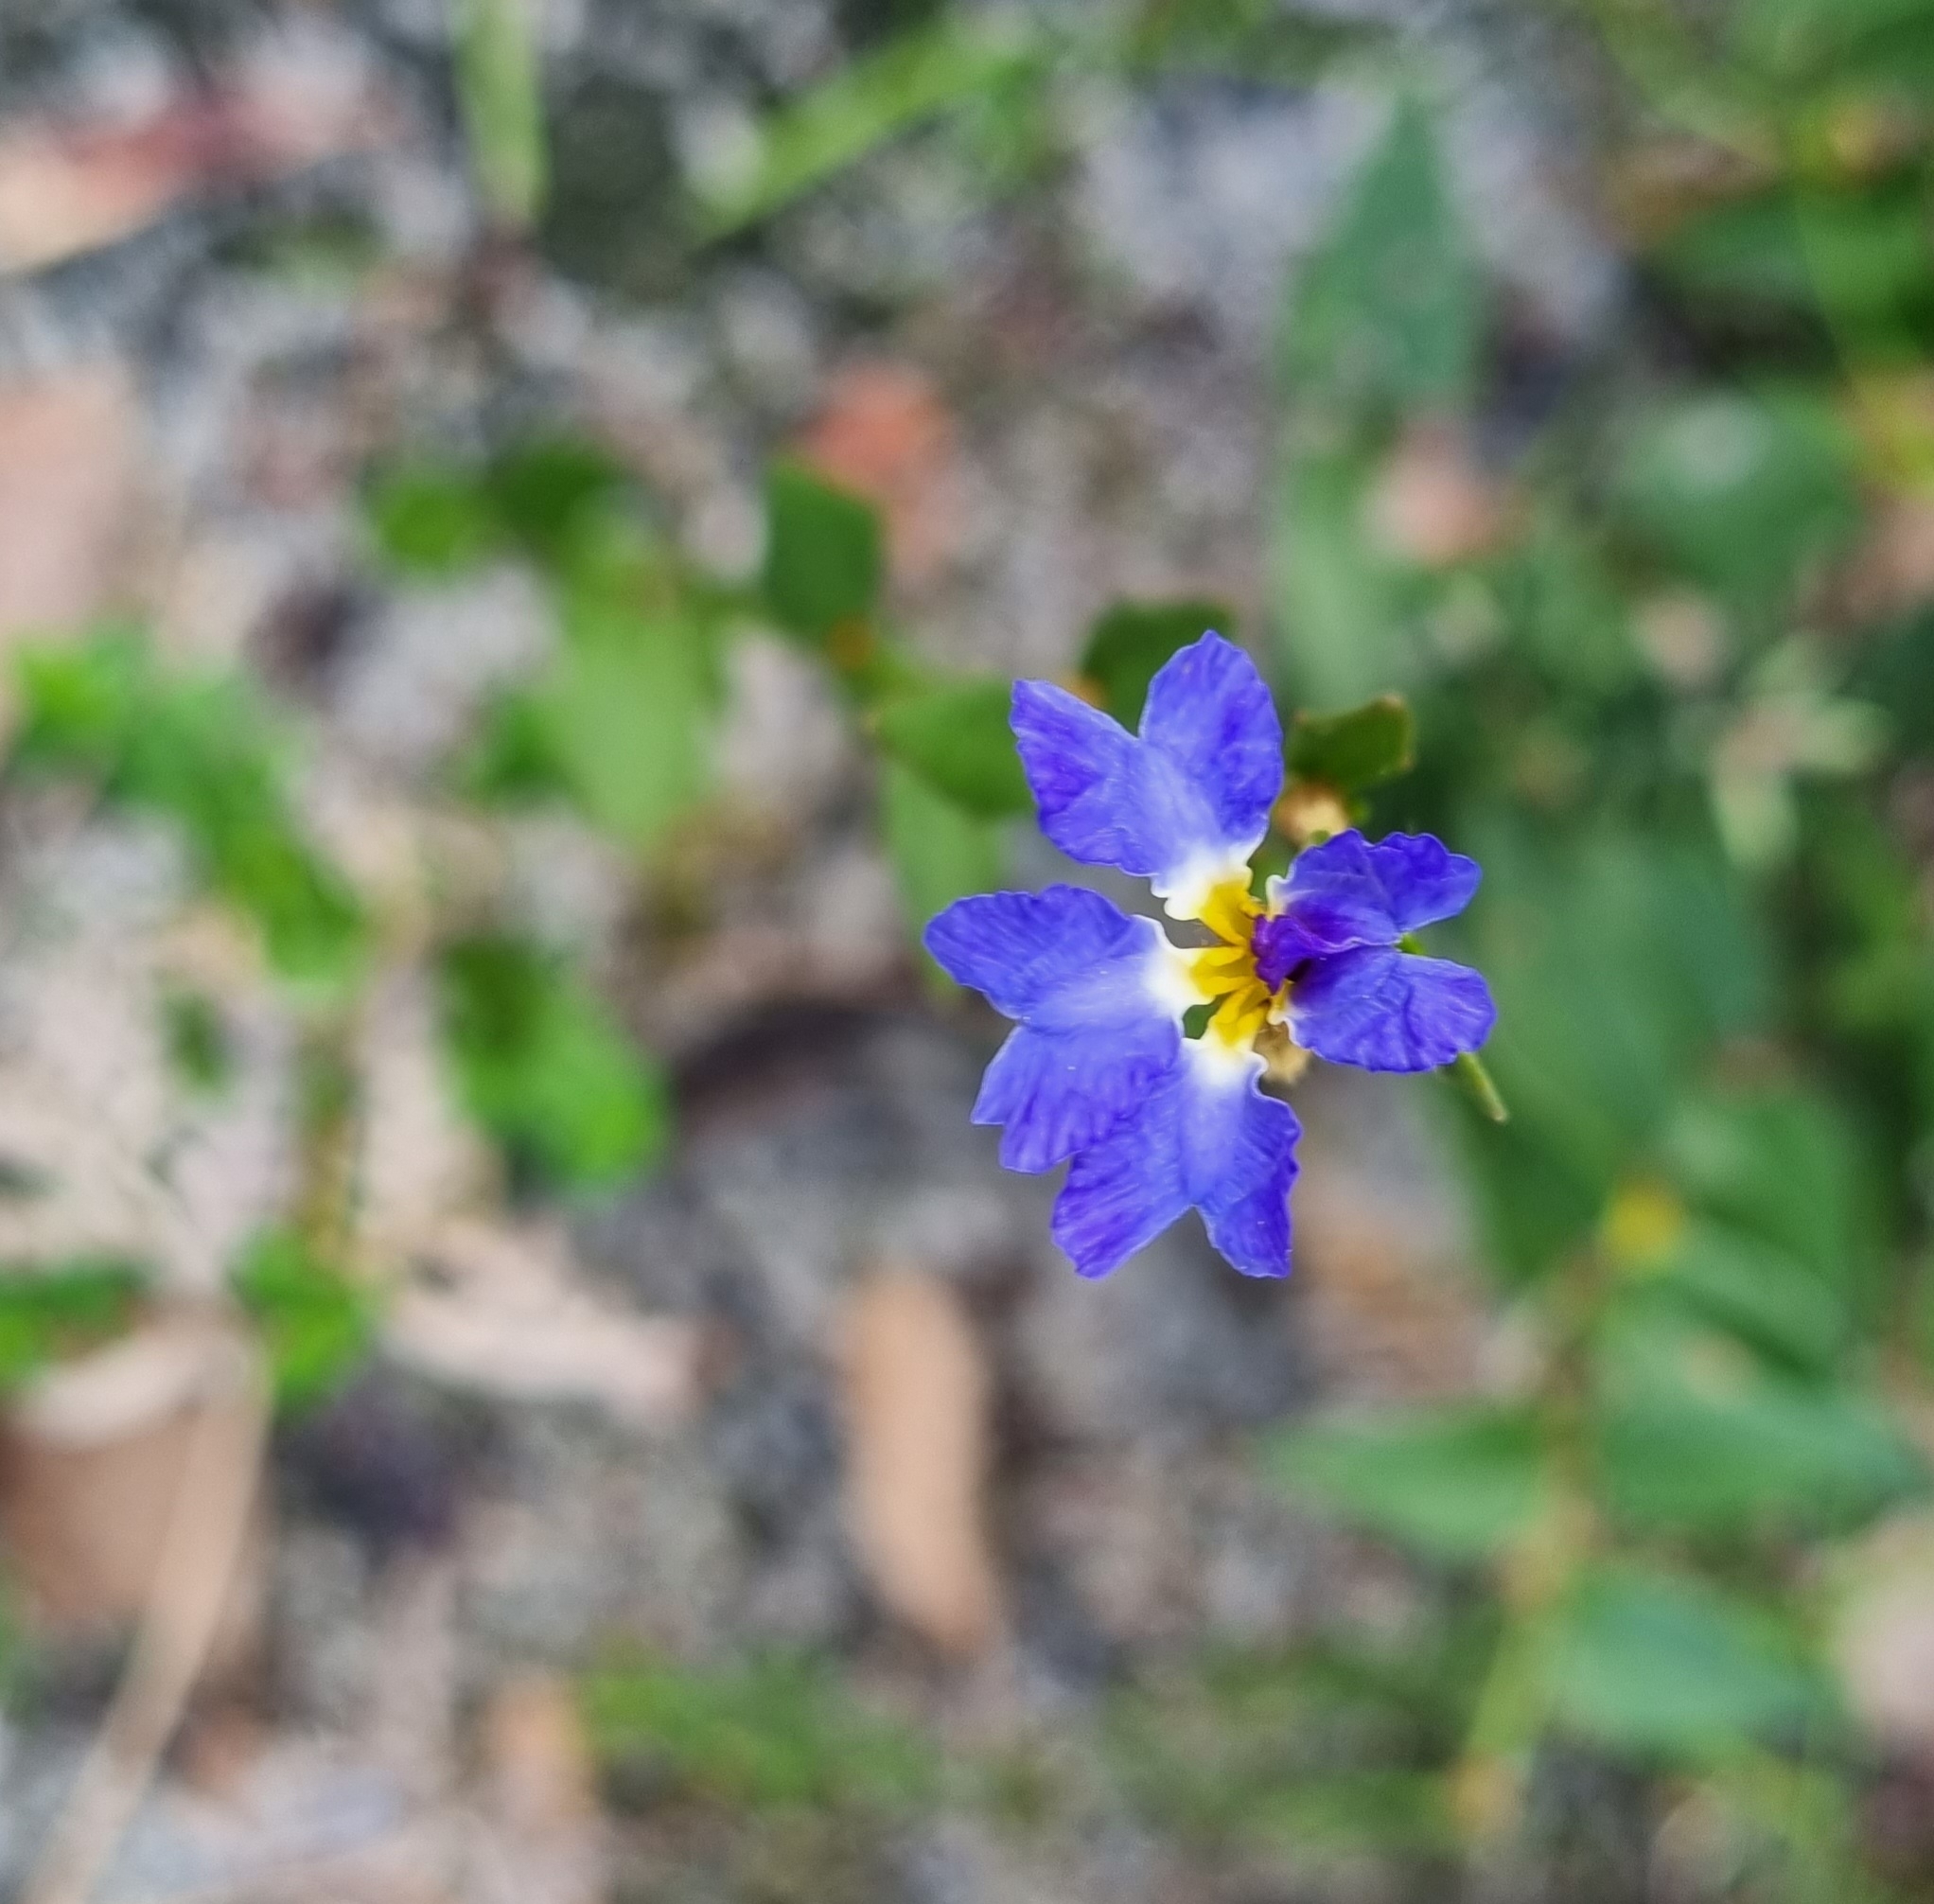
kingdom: Plantae
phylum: Tracheophyta
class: Magnoliopsida
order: Asterales
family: Goodeniaceae
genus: Dampiera
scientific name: Dampiera stricta
